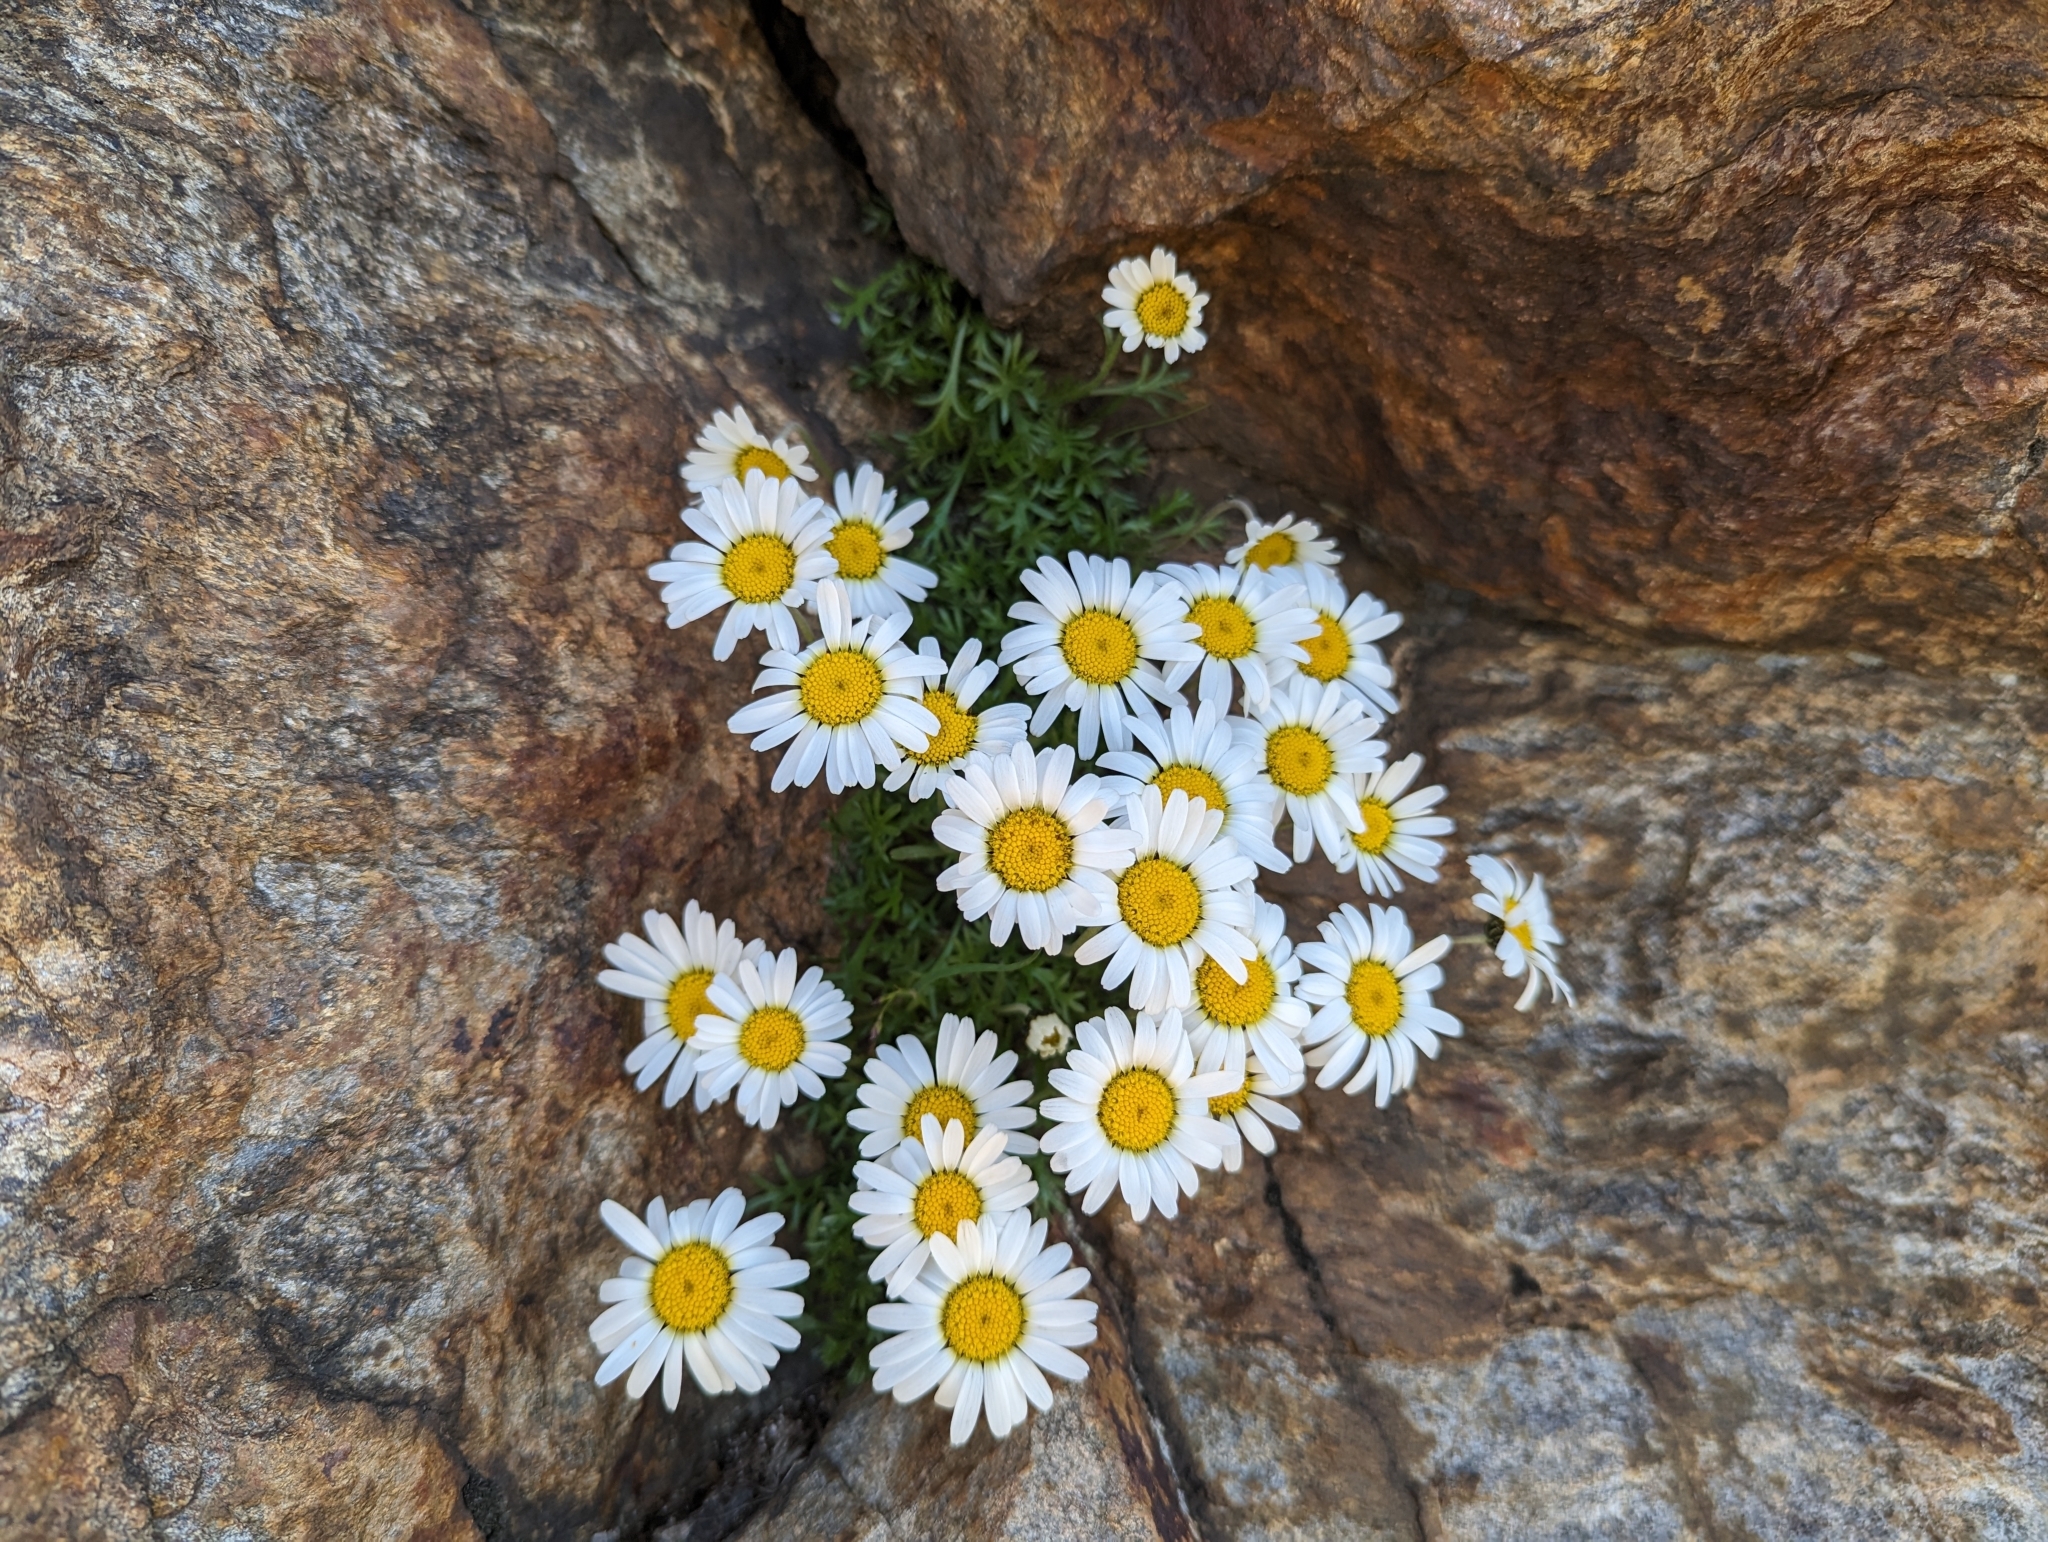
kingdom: Plantae
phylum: Tracheophyta
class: Magnoliopsida
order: Asterales
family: Asteraceae
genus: Leucanthemopsis
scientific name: Leucanthemopsis alpina
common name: Alpine moon daisy
